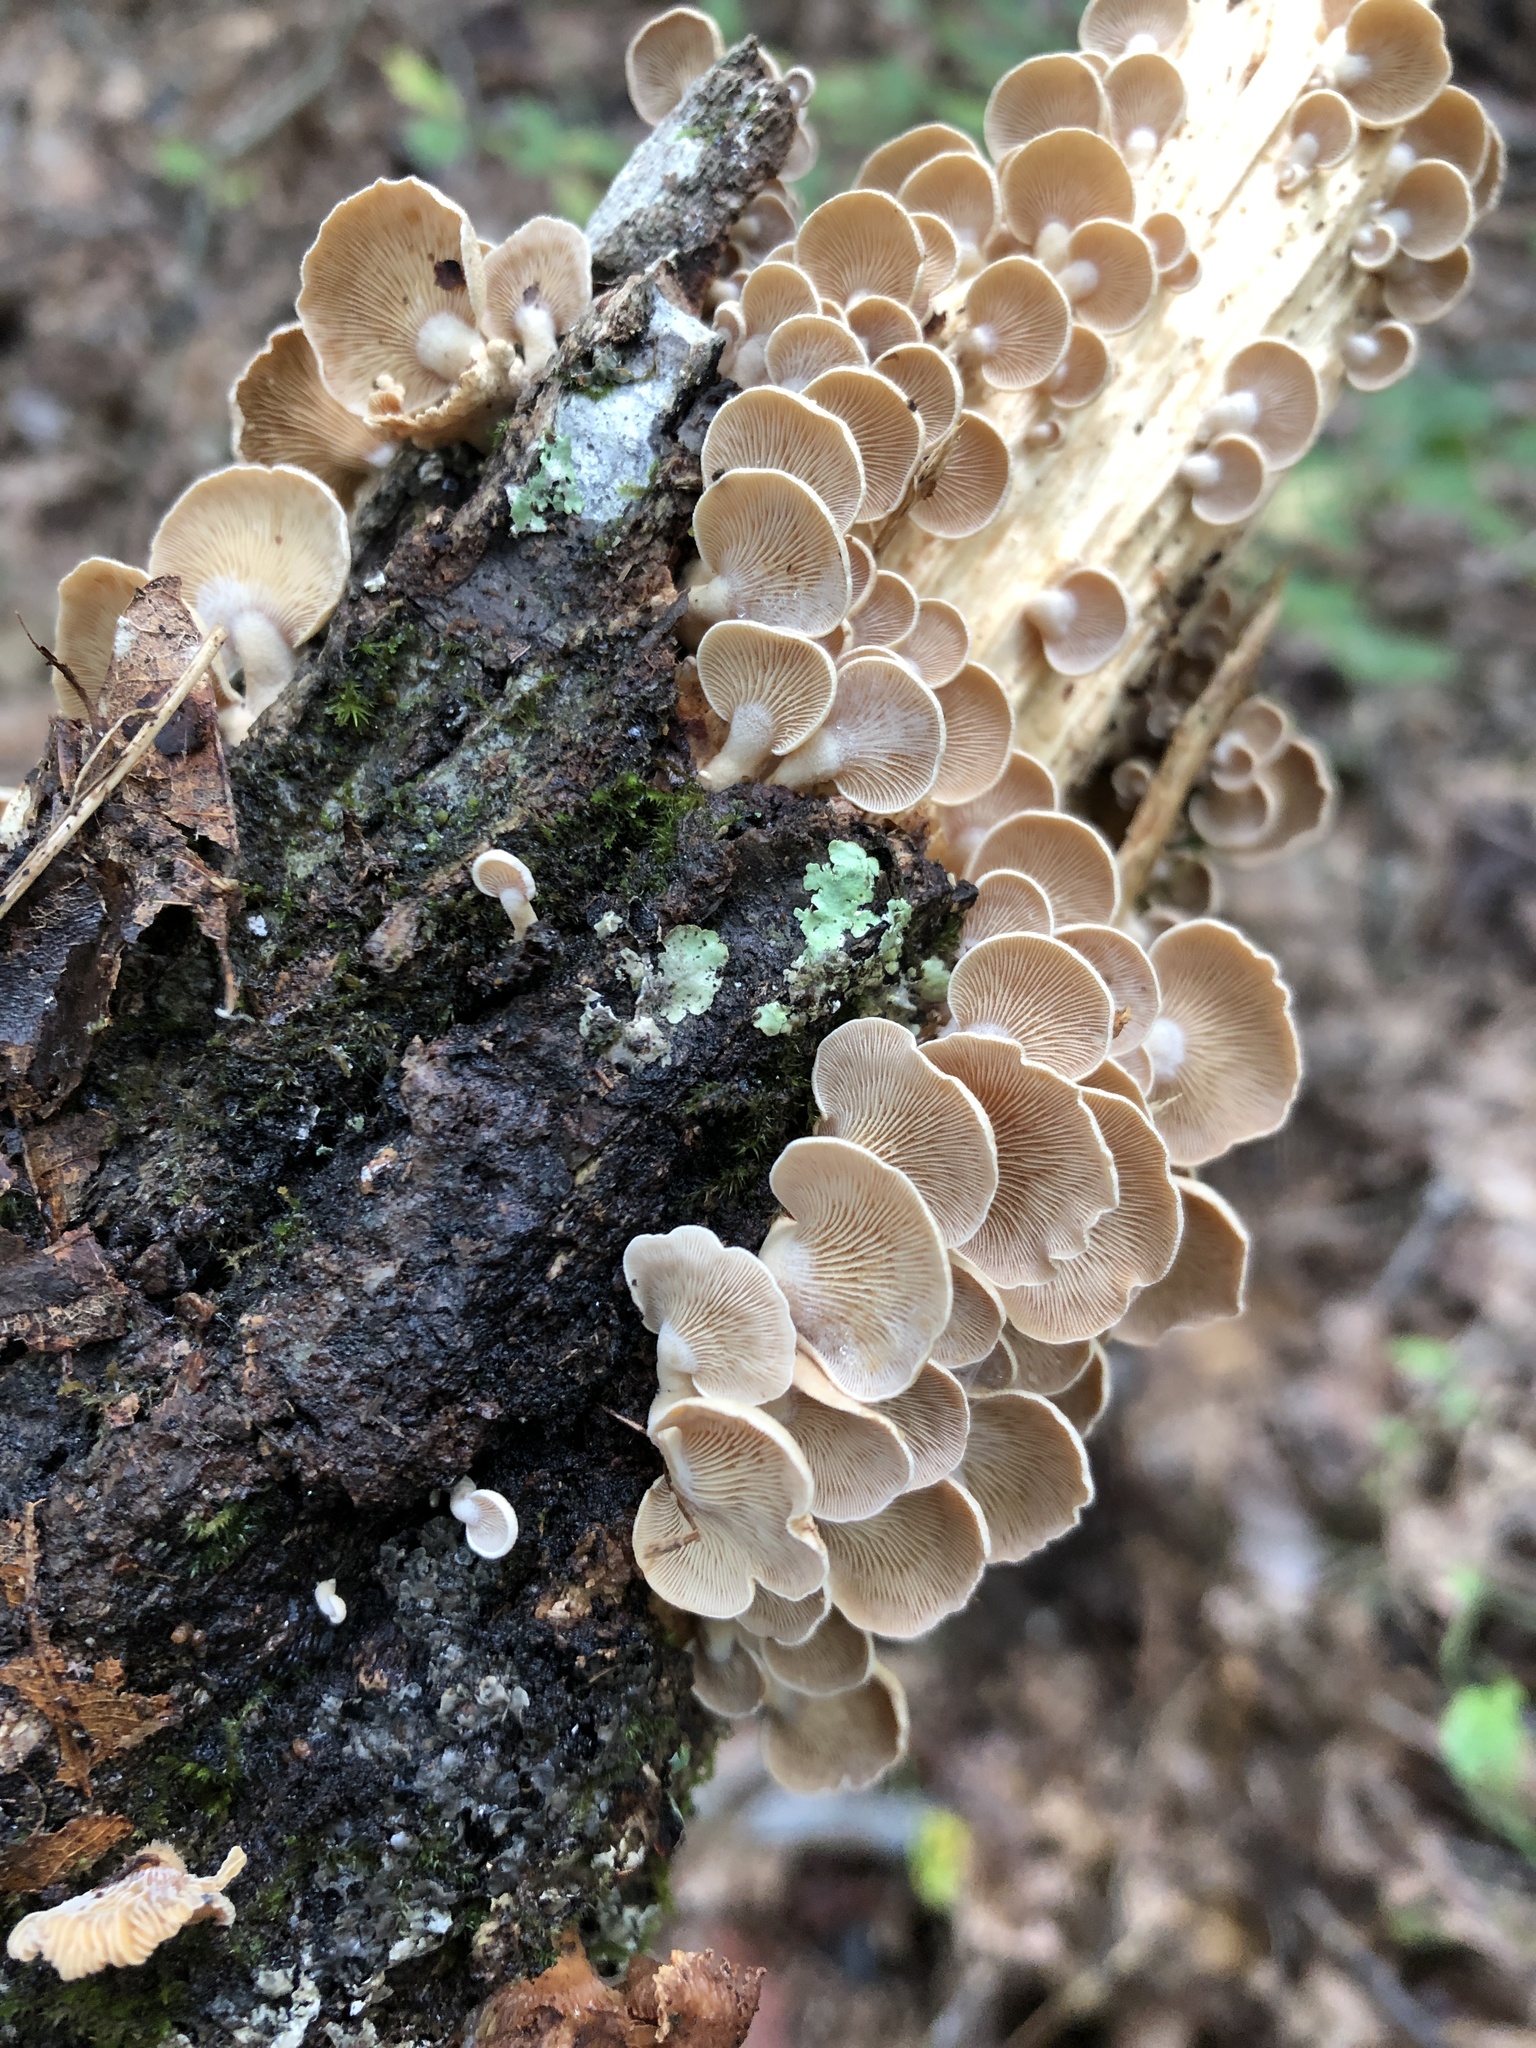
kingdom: Fungi
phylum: Basidiomycota
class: Agaricomycetes
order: Agaricales
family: Mycenaceae
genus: Panellus
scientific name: Panellus stipticus
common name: Bitter oysterling
